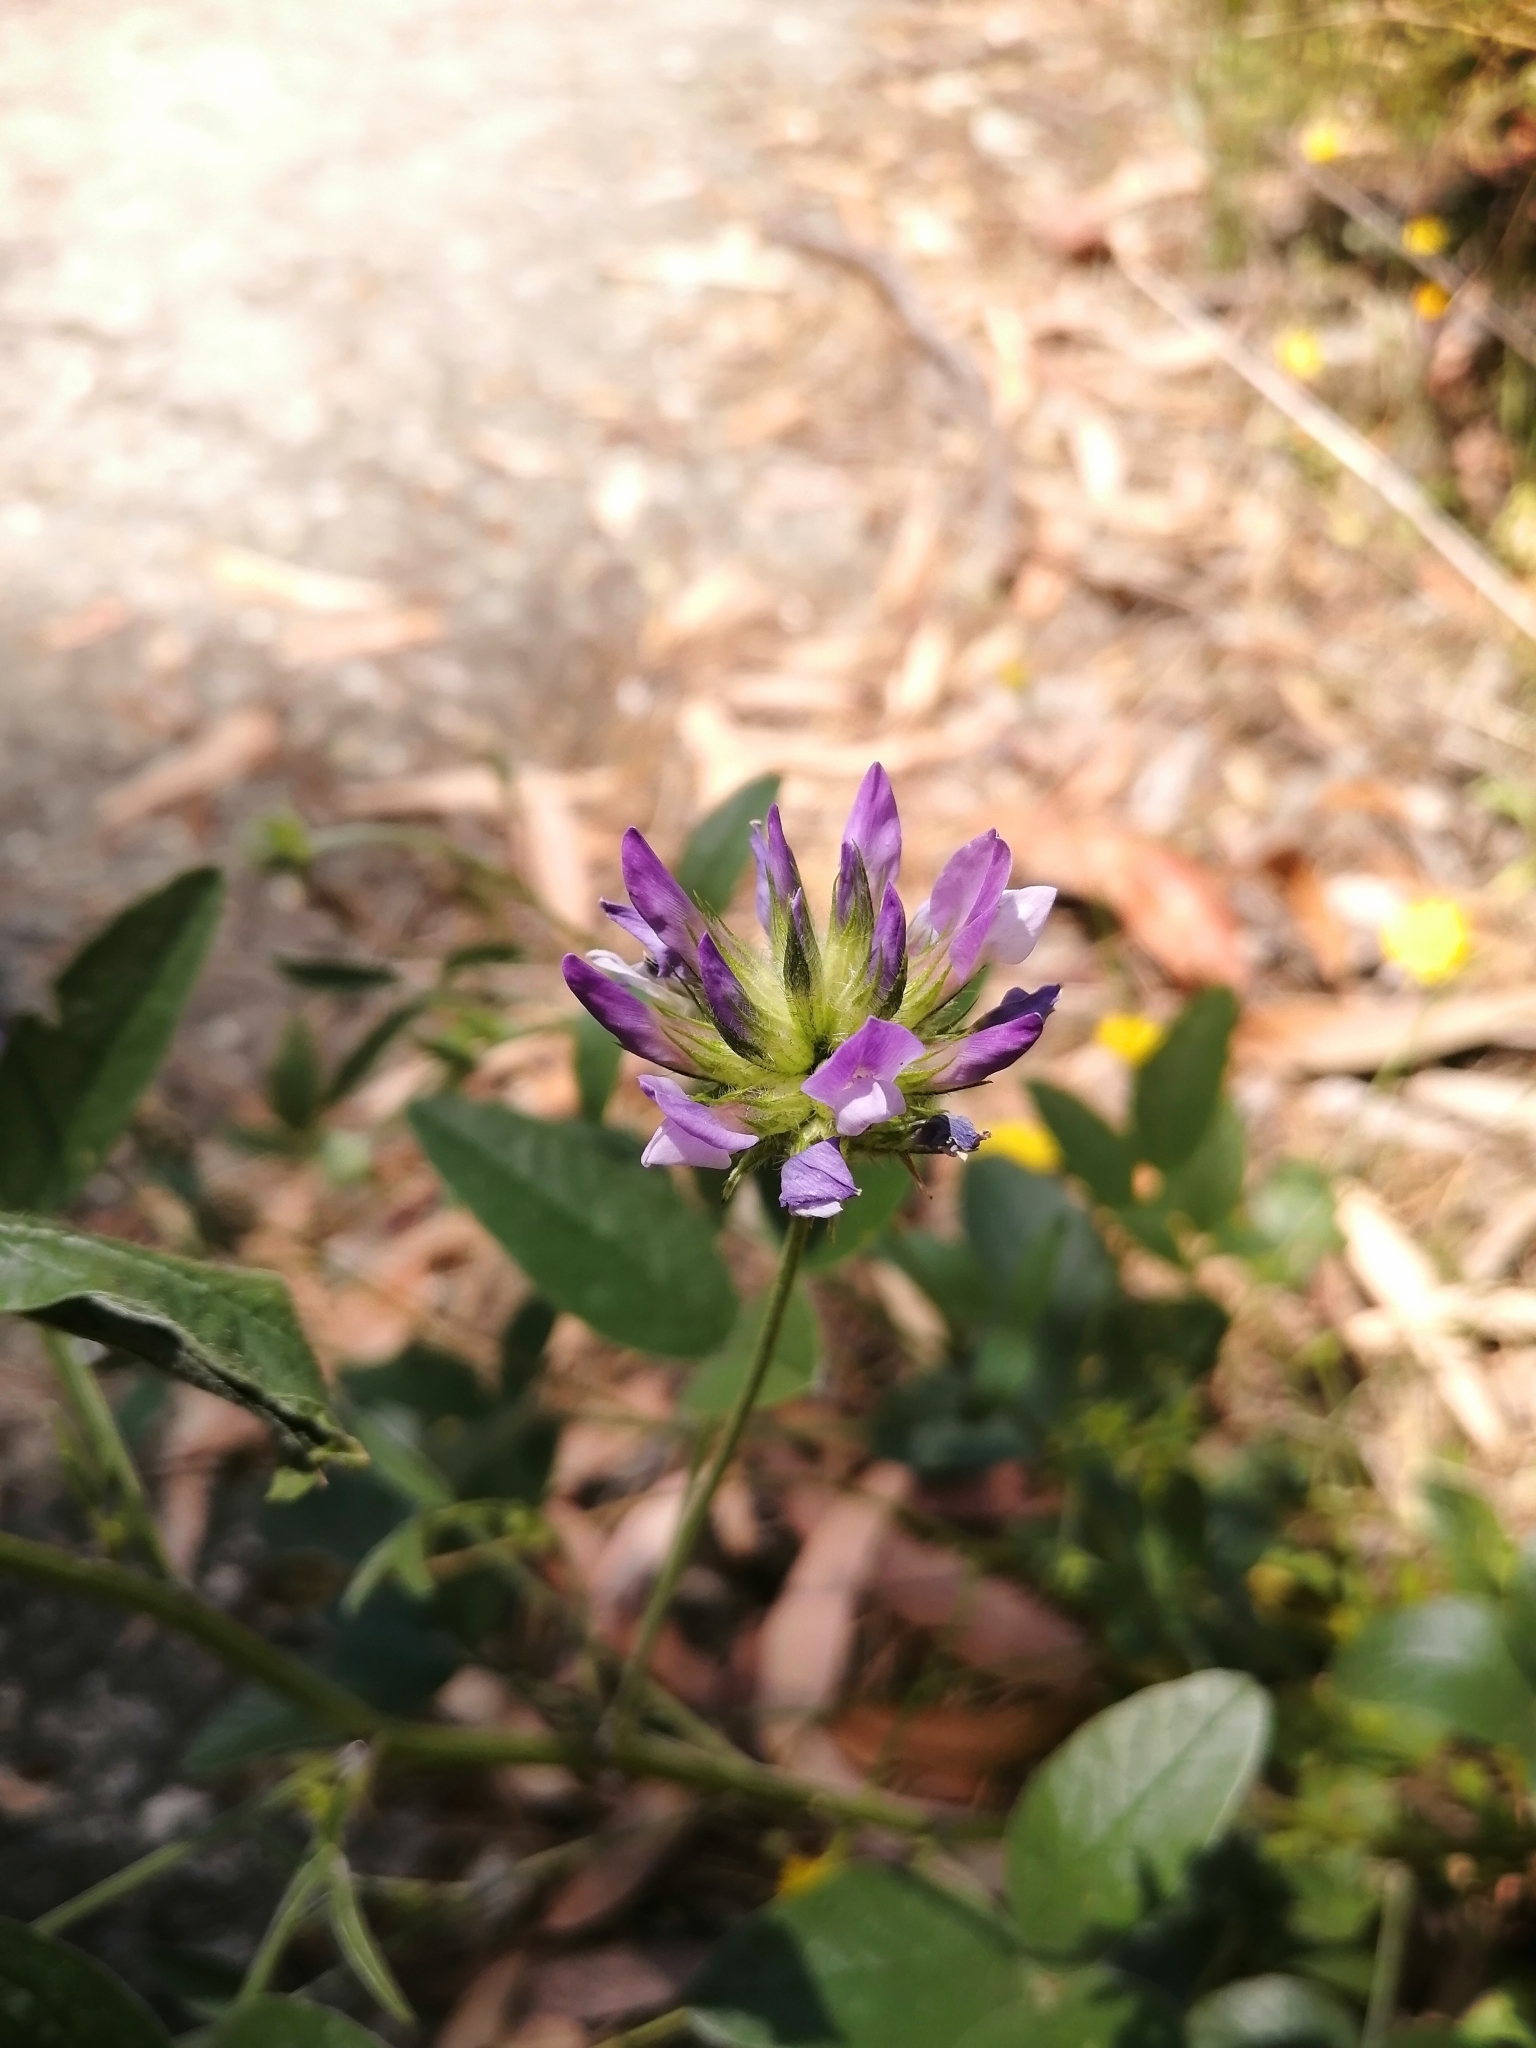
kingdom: Plantae
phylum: Tracheophyta
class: Magnoliopsida
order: Fabales
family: Fabaceae
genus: Bituminaria
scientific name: Bituminaria bituminosa
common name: Arabian pea
